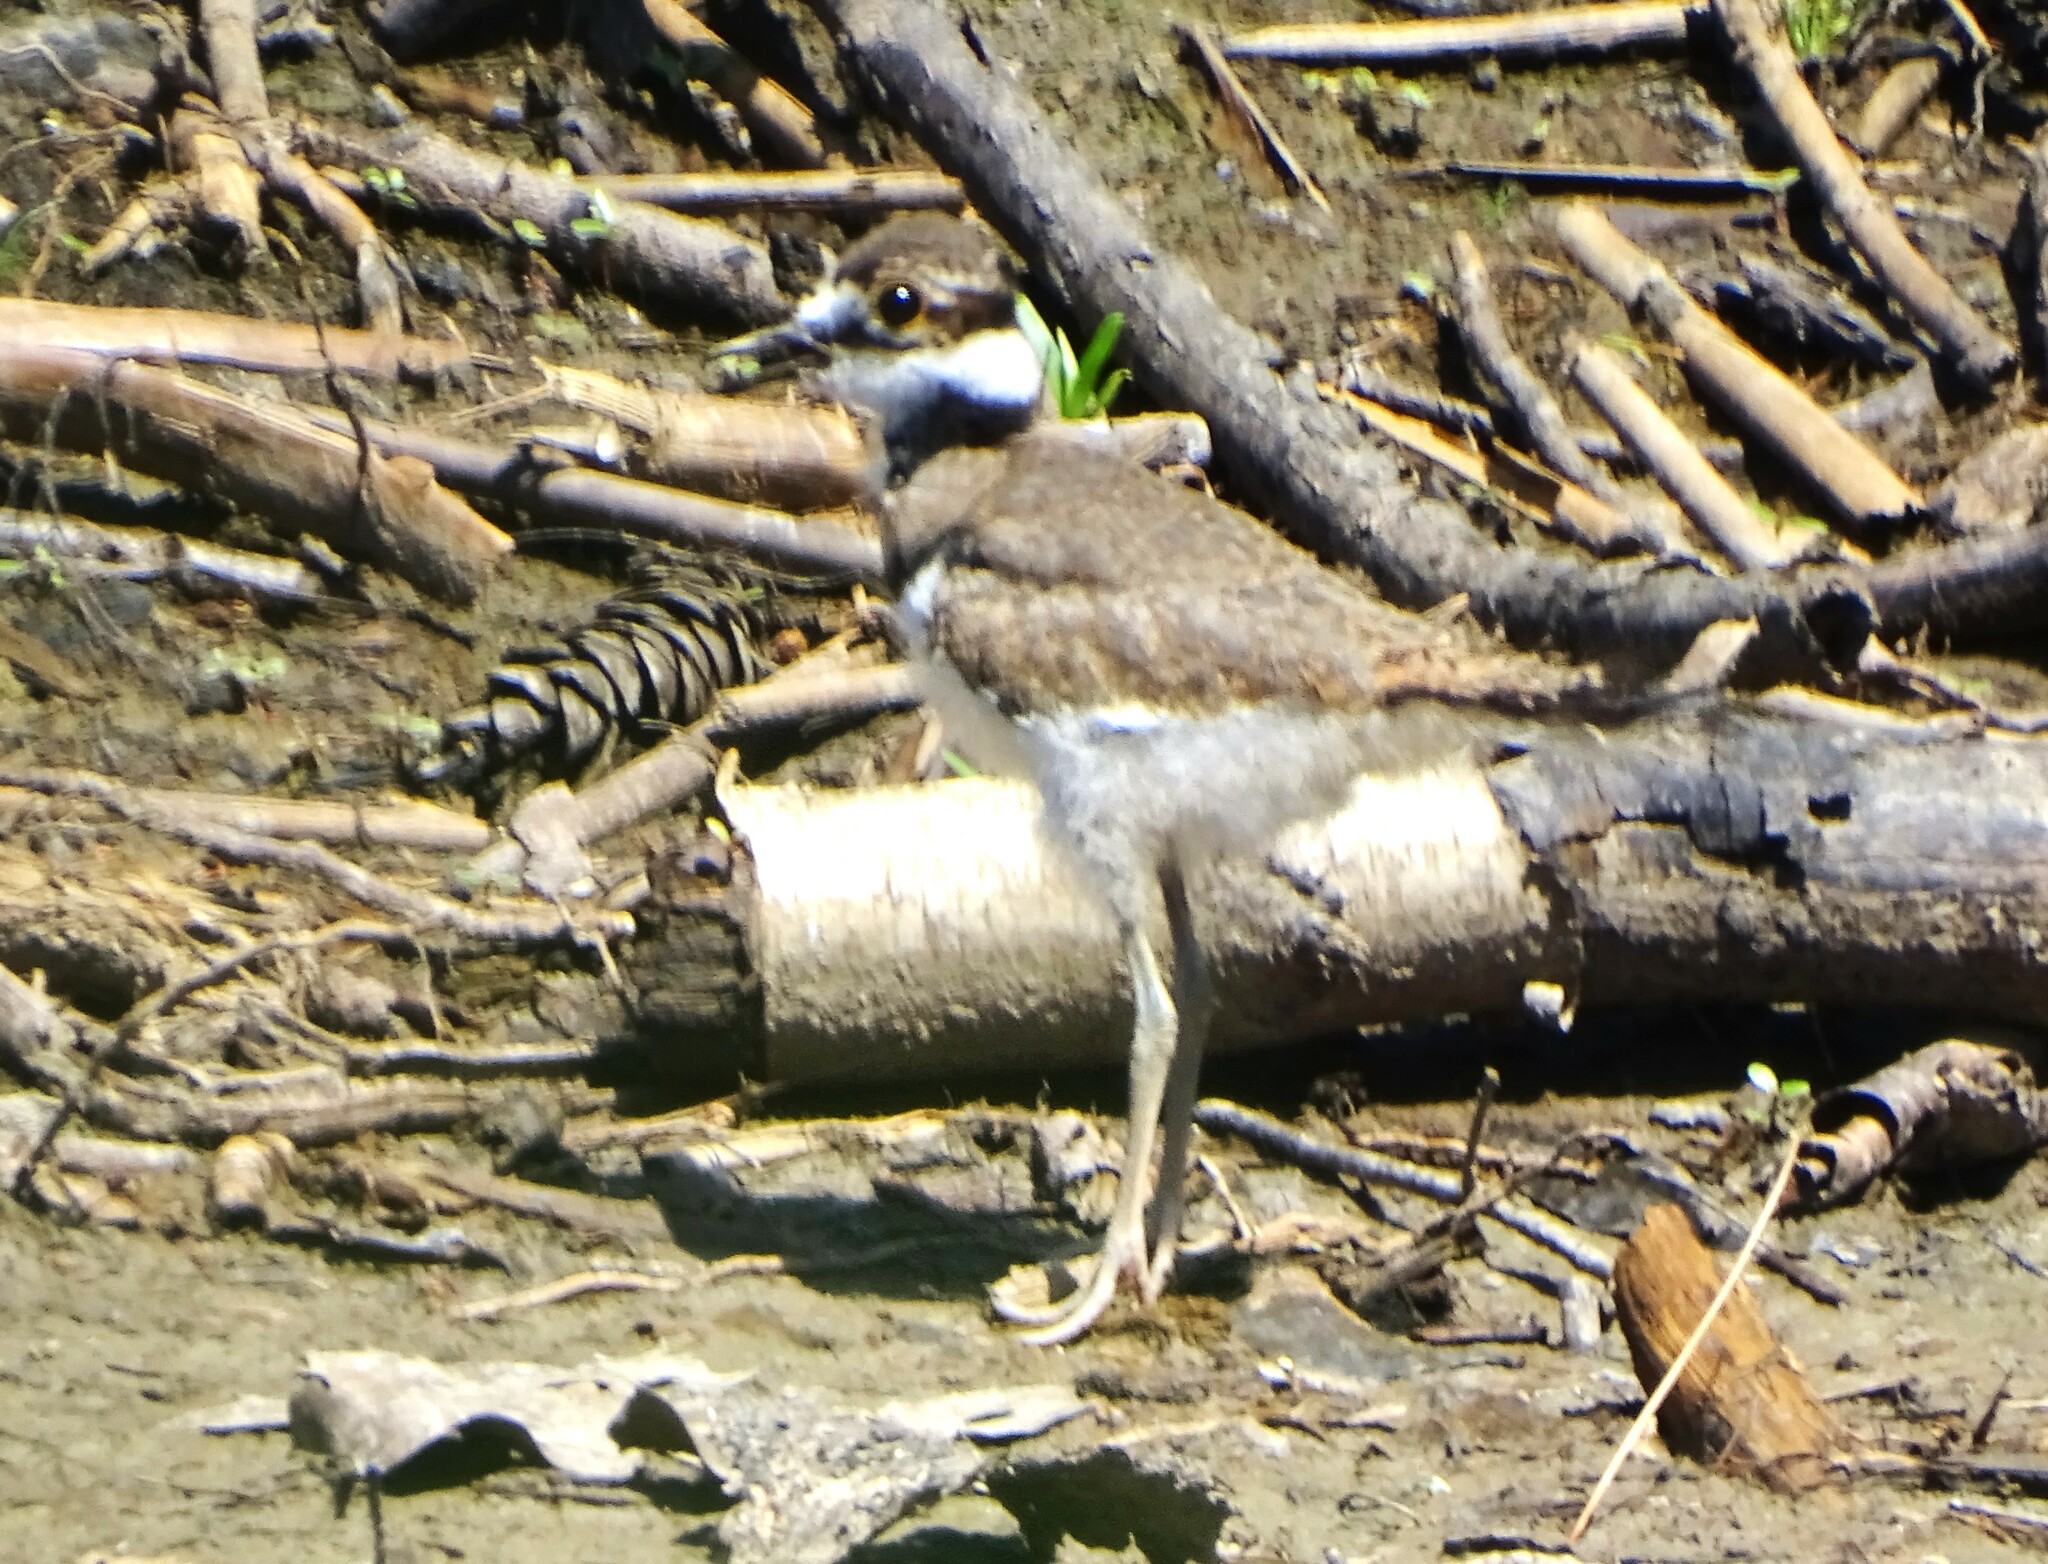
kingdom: Animalia
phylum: Chordata
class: Aves
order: Charadriiformes
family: Charadriidae
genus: Charadrius
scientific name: Charadrius vociferus
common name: Killdeer
